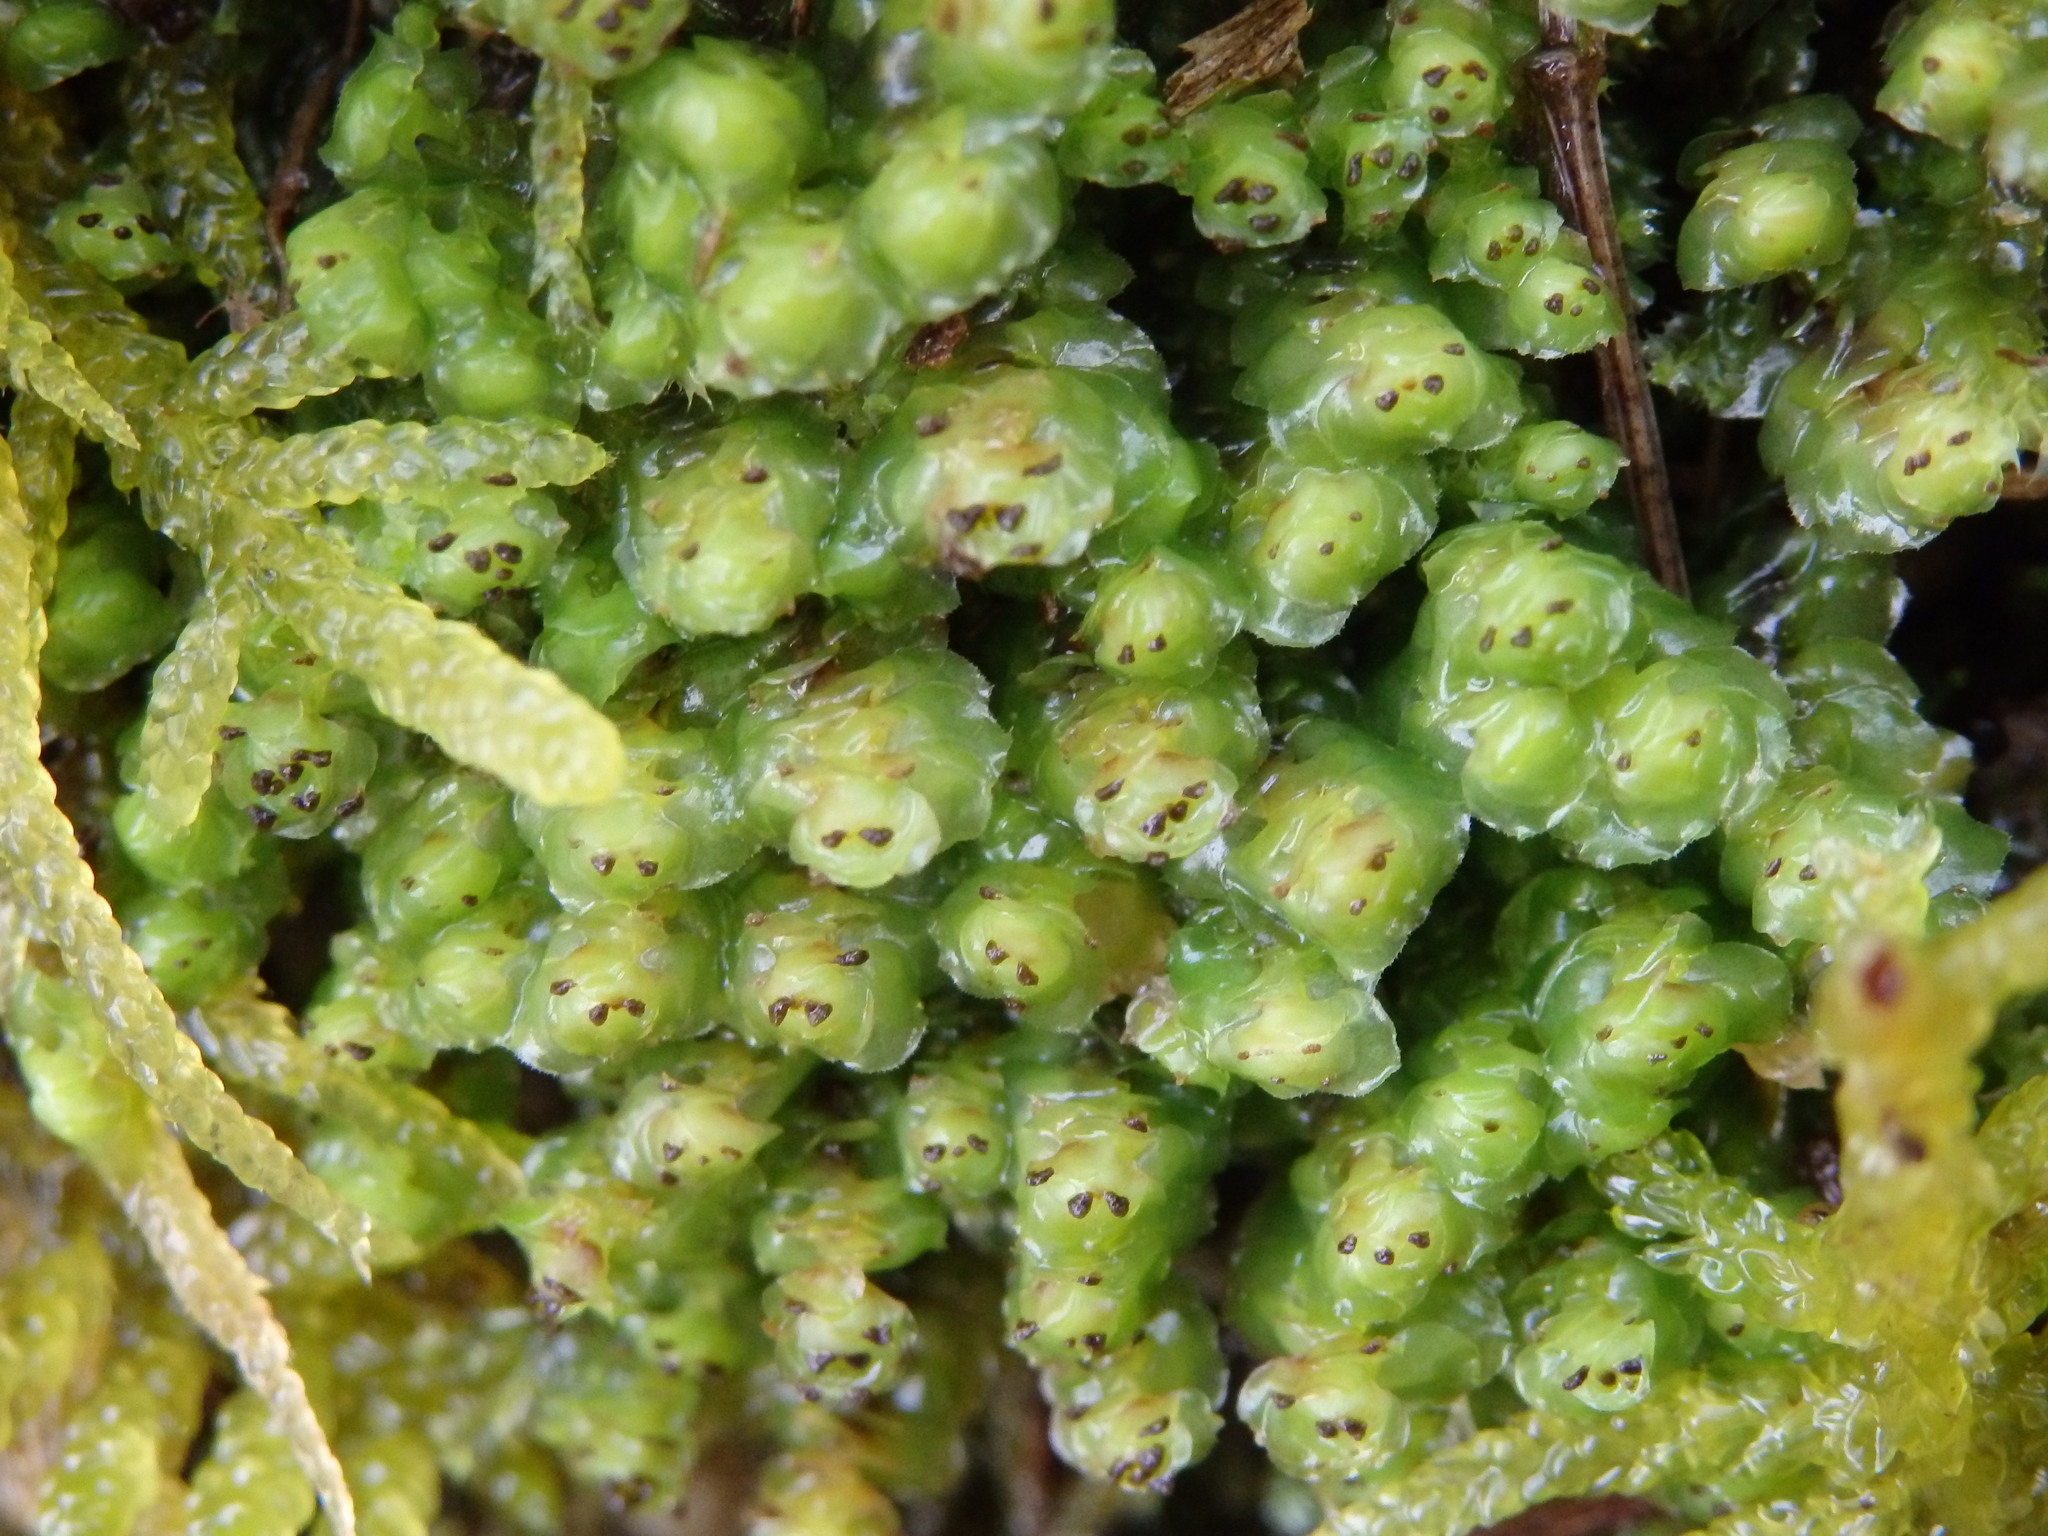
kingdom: Plantae
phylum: Marchantiophyta
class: Jungermanniopsida
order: Jungermanniales
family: Scapaniaceae
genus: Scapania
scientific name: Scapania nemorea
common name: Grove earwort
